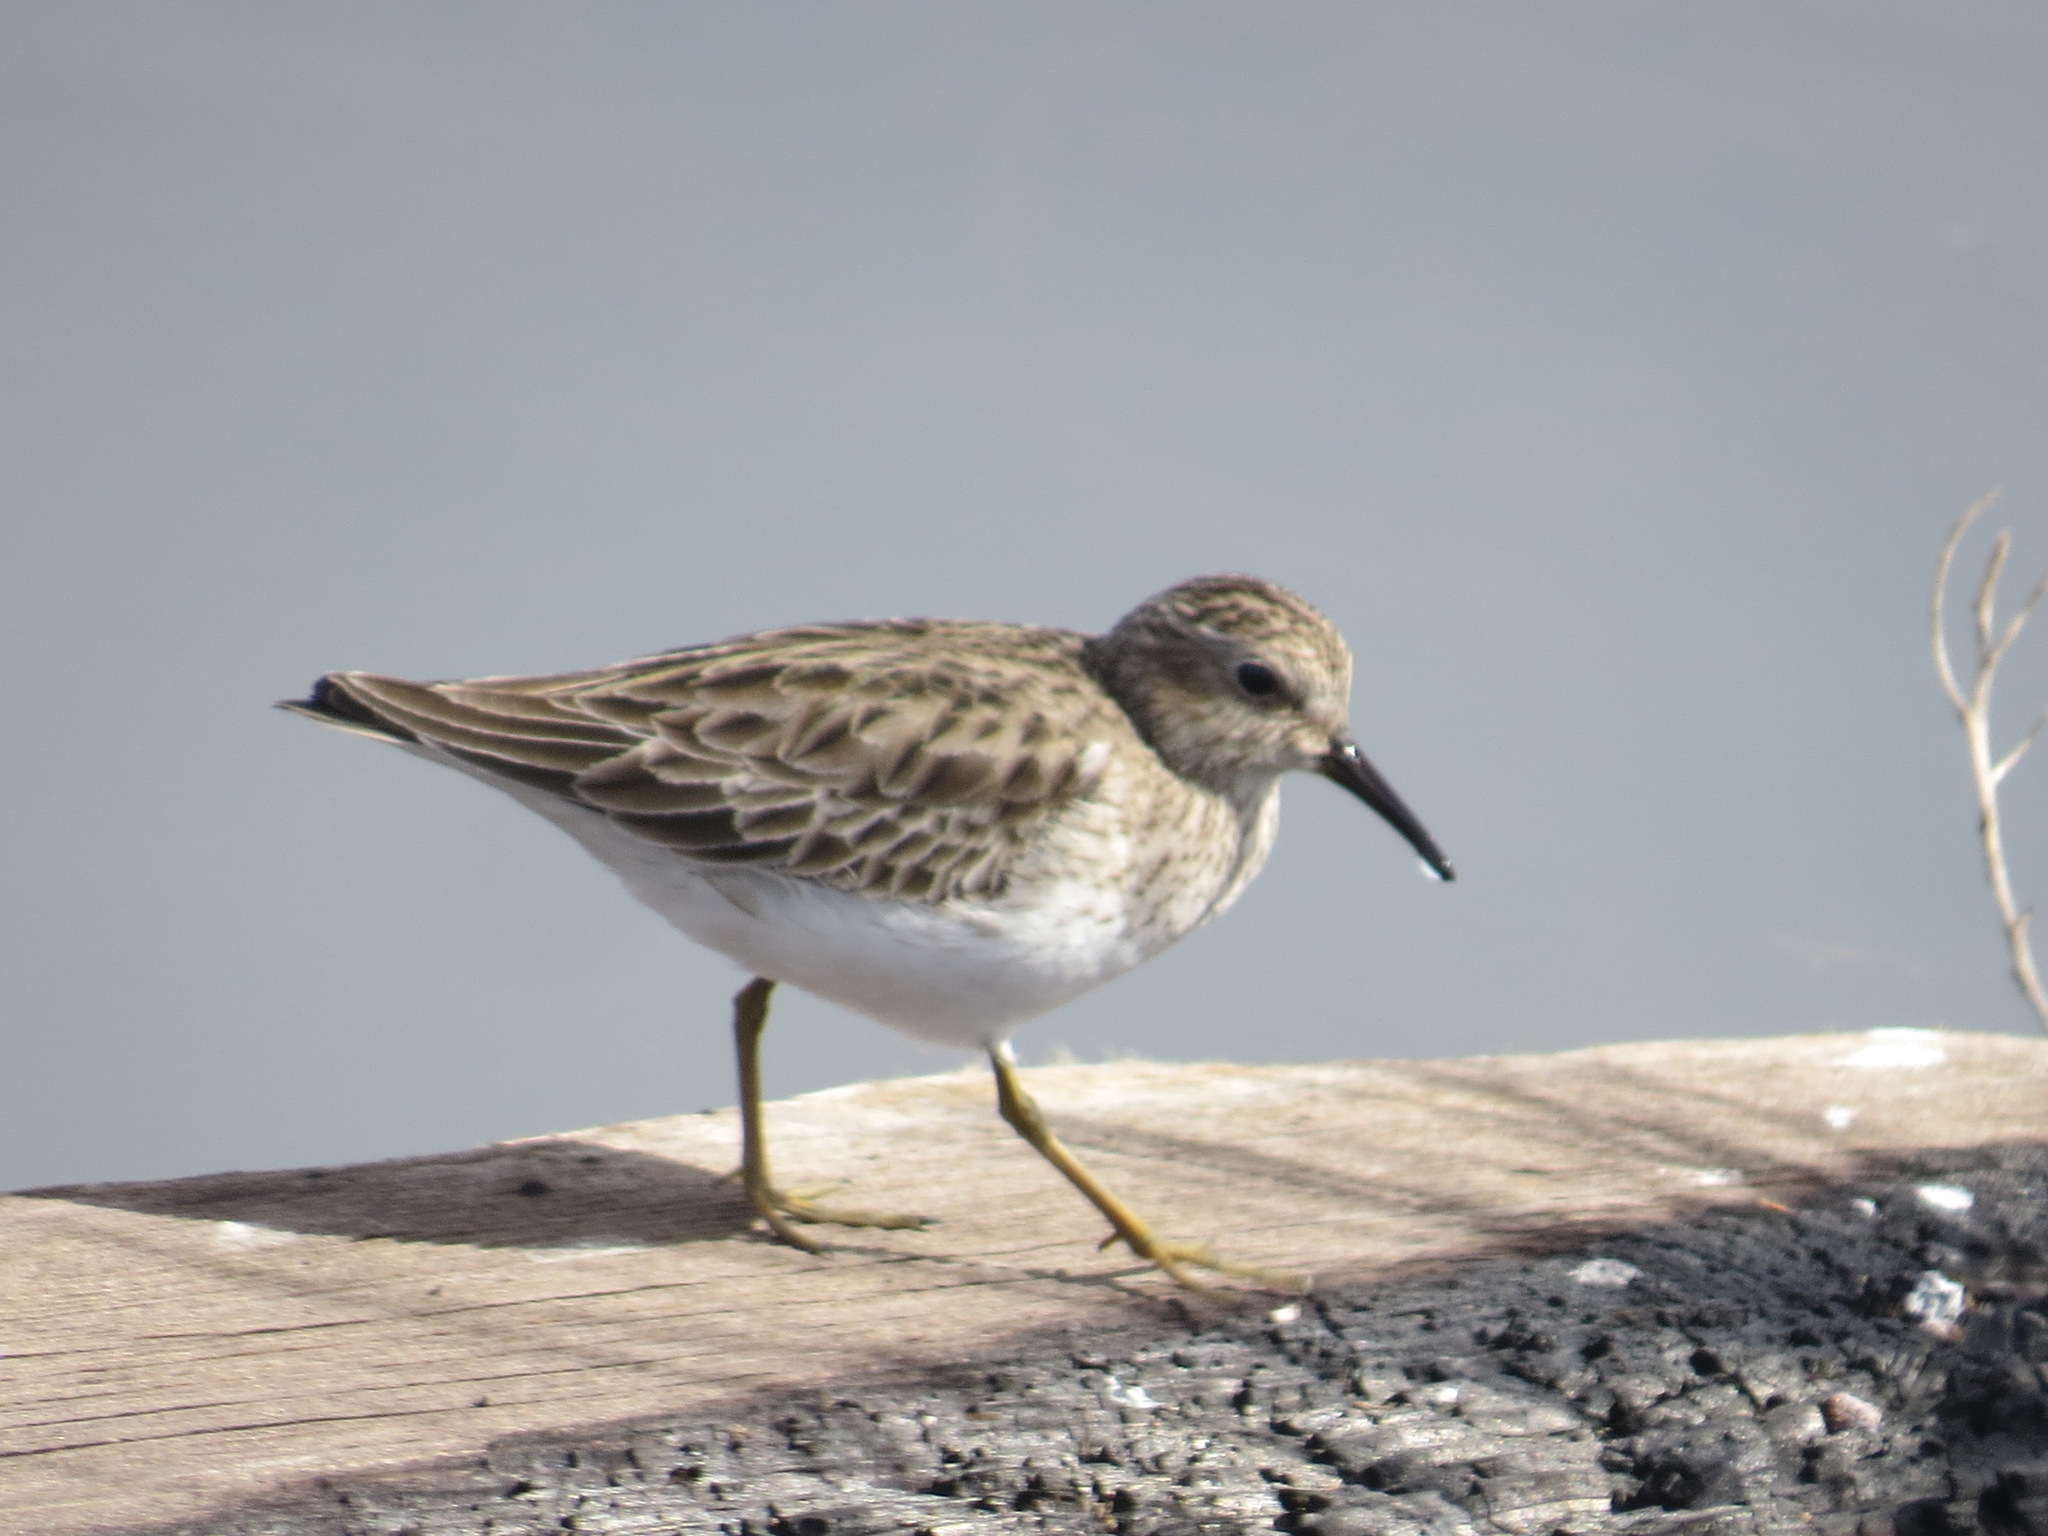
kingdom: Animalia
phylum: Chordata
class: Aves
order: Charadriiformes
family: Scolopacidae
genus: Calidris
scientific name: Calidris minutilla
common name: Least sandpiper
